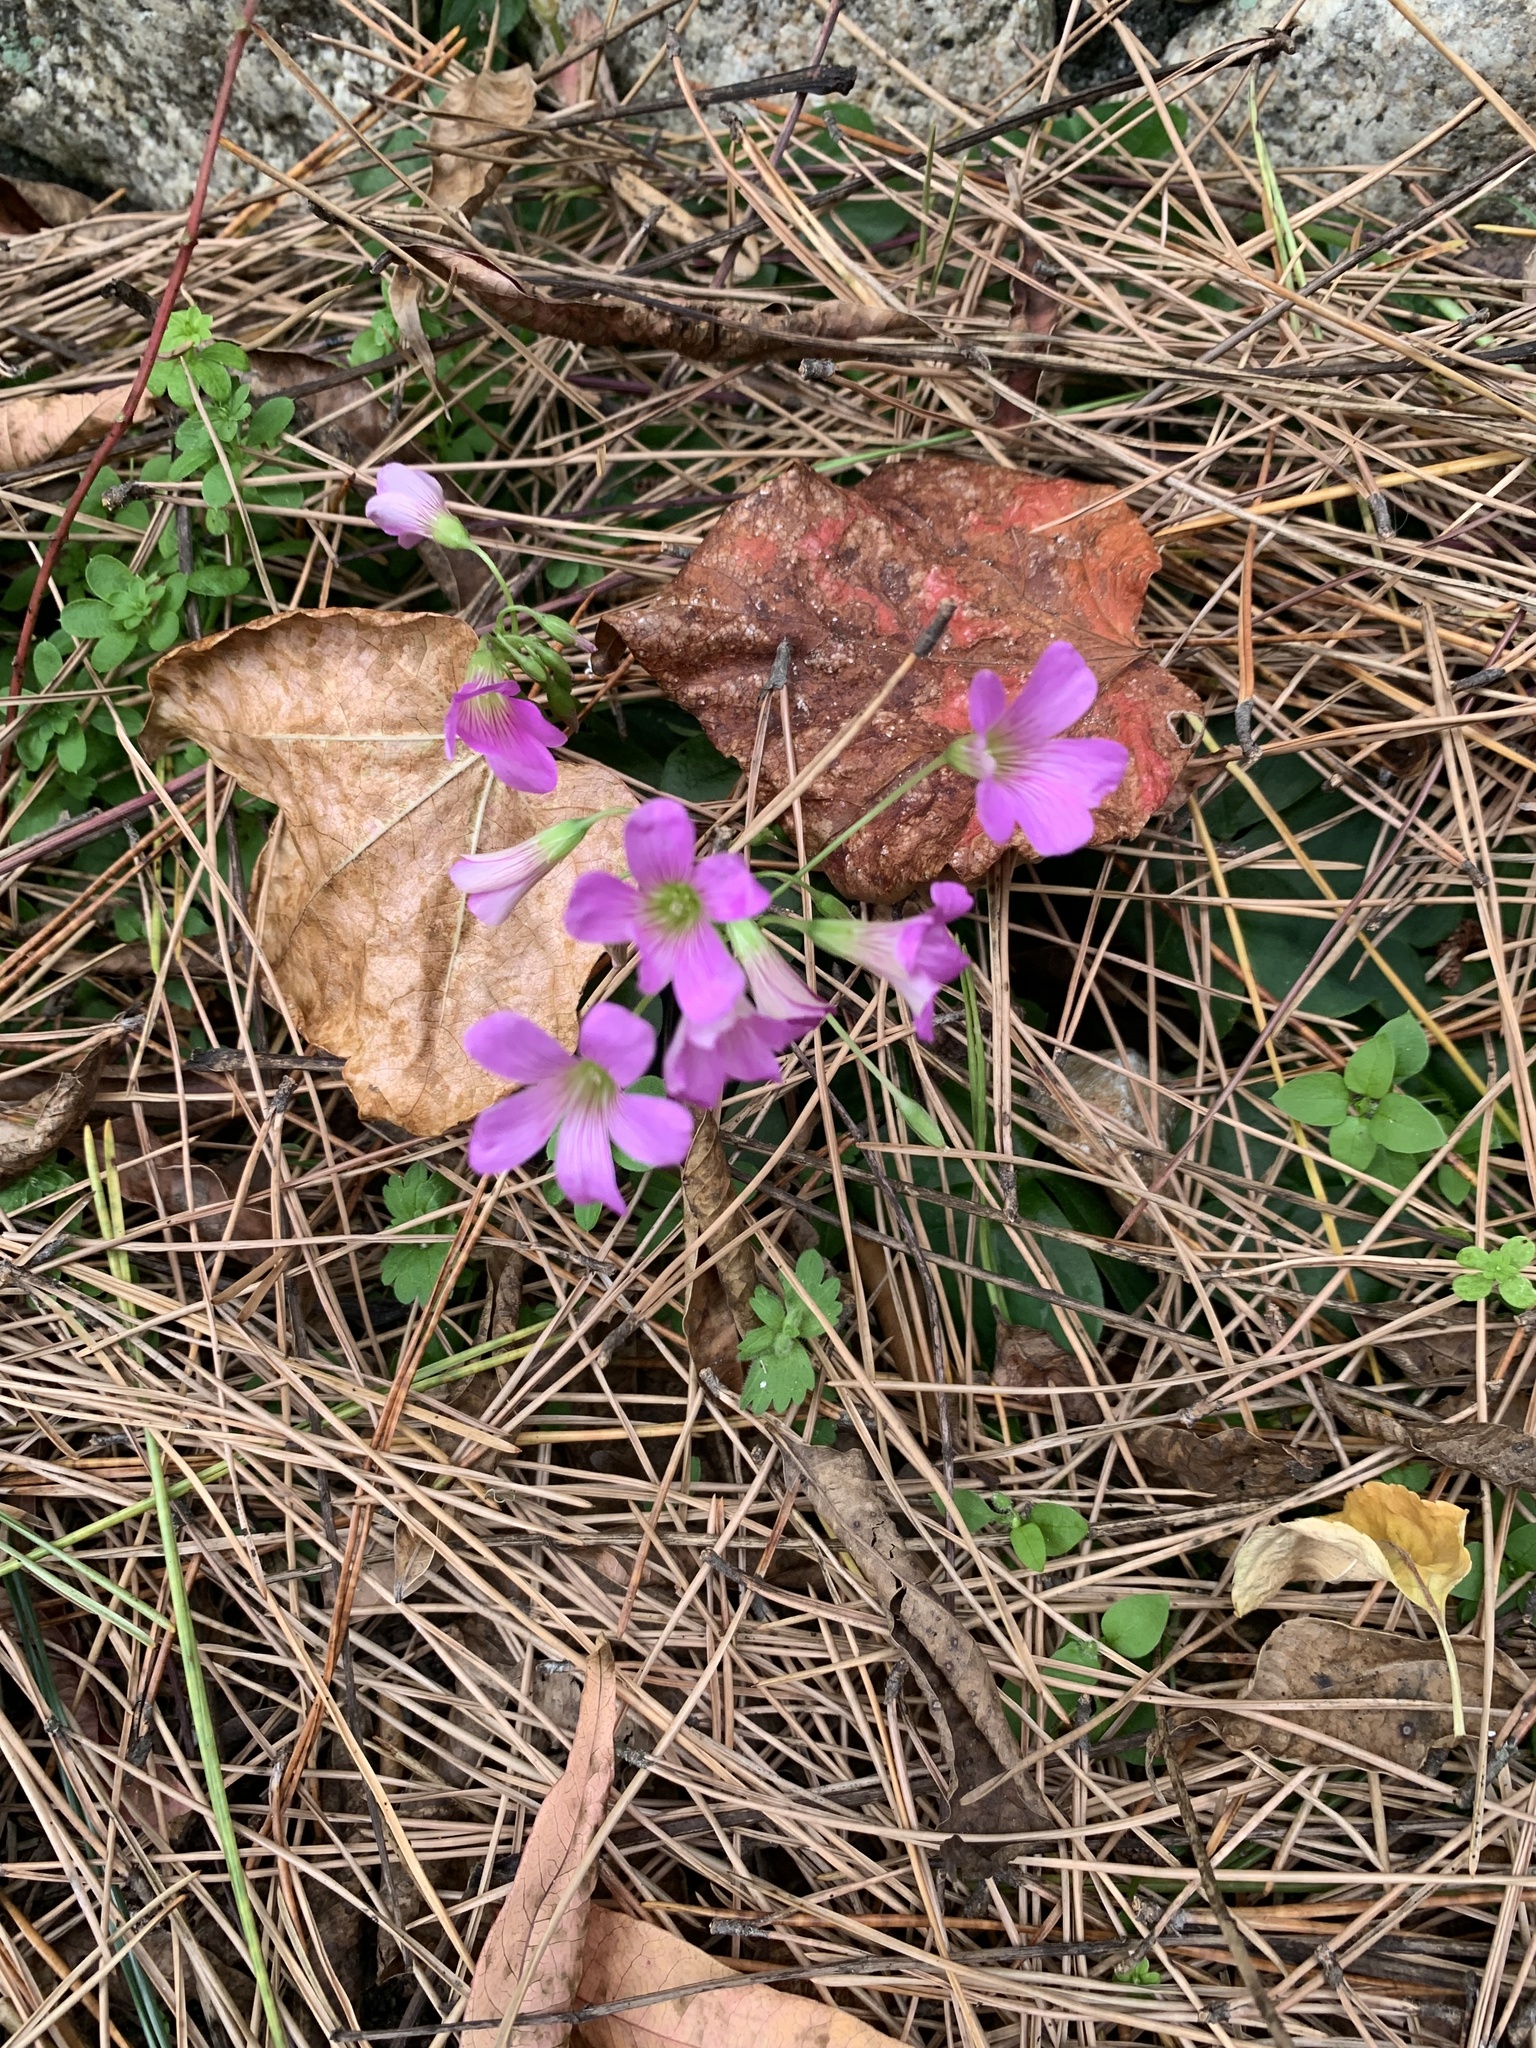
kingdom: Plantae
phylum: Tracheophyta
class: Magnoliopsida
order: Oxalidales
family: Oxalidaceae
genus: Oxalis
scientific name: Oxalis debilis
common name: Large-flowered pink-sorrel
